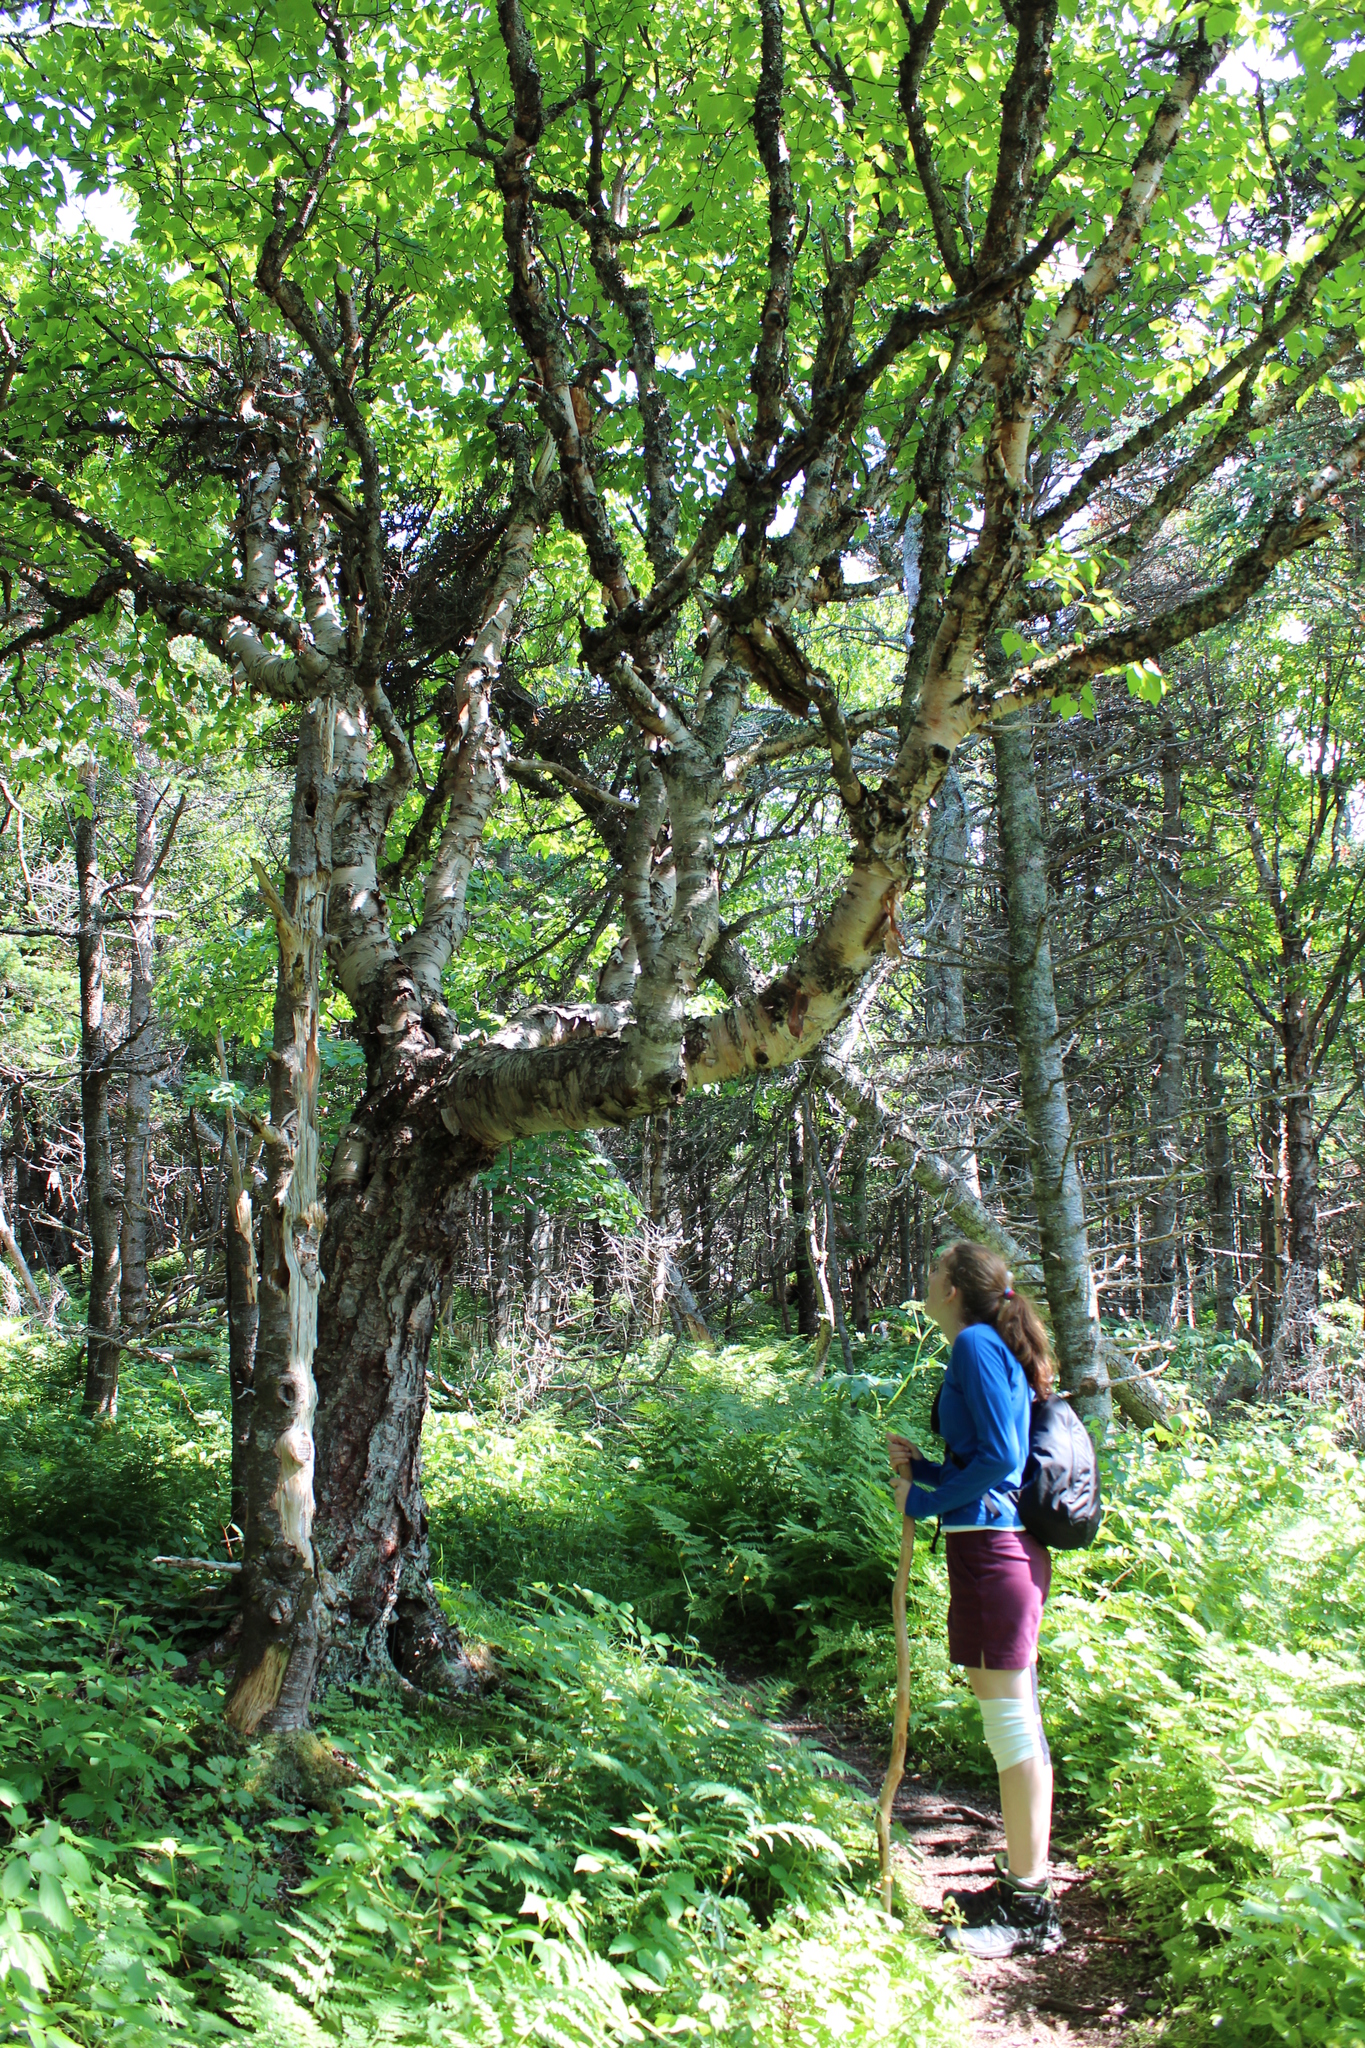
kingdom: Plantae
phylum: Tracheophyta
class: Magnoliopsida
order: Fagales
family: Betulaceae
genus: Betula
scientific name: Betula papyrifera
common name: Paper birch
